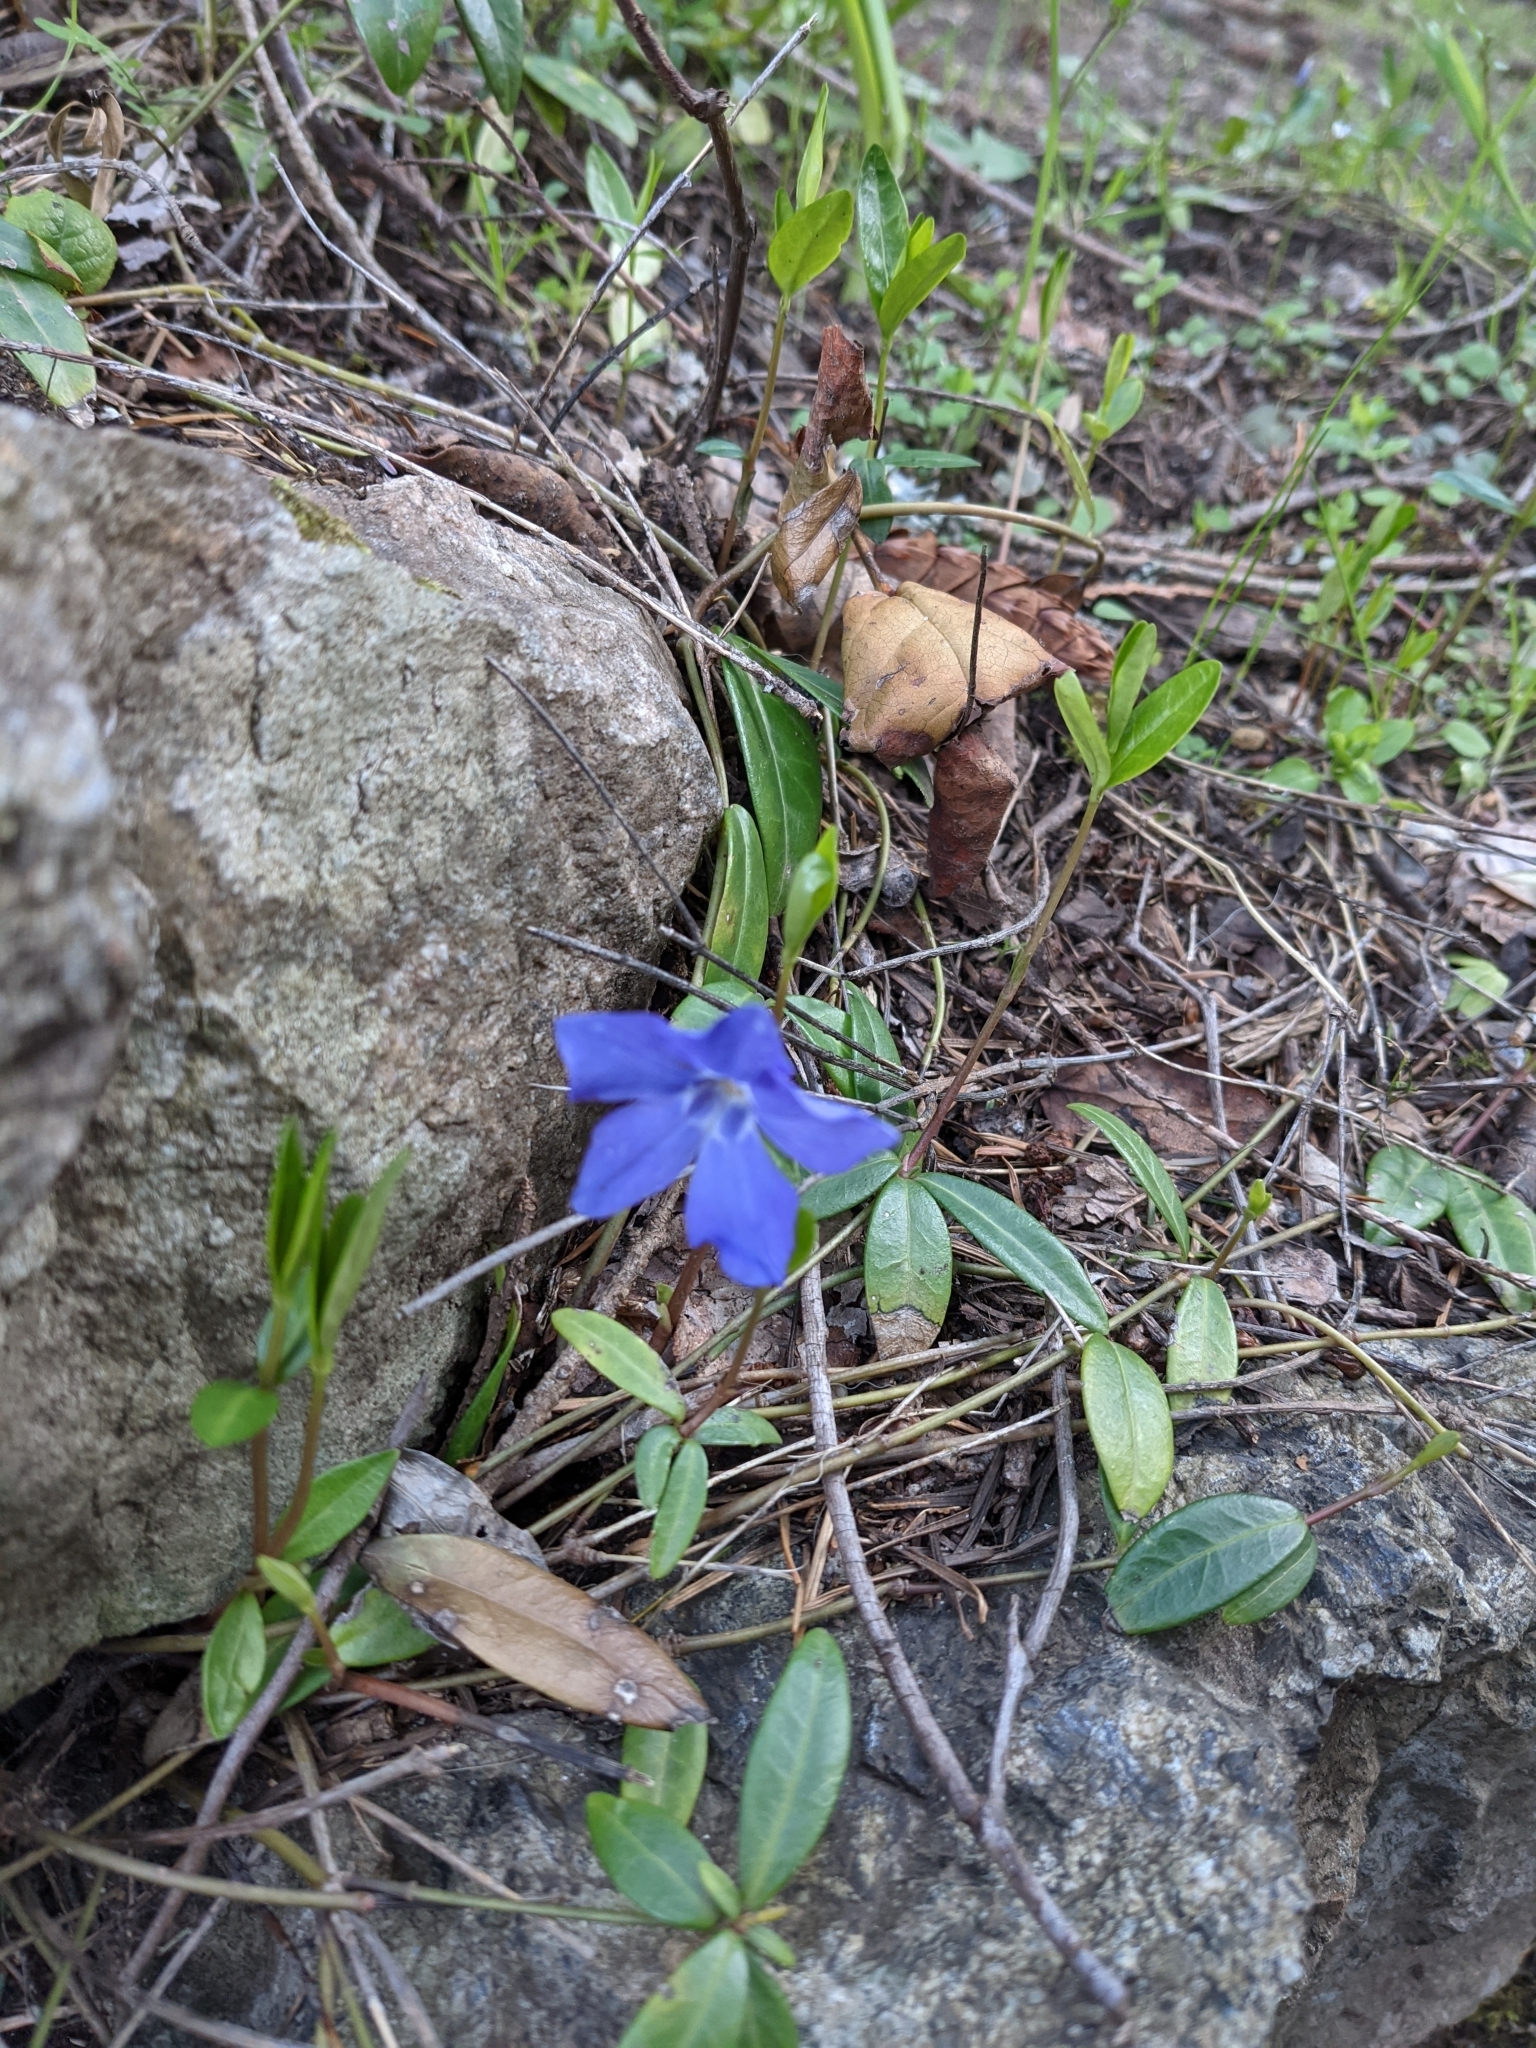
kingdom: Plantae
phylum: Tracheophyta
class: Magnoliopsida
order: Gentianales
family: Apocynaceae
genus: Vinca
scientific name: Vinca minor
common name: Lesser periwinkle
